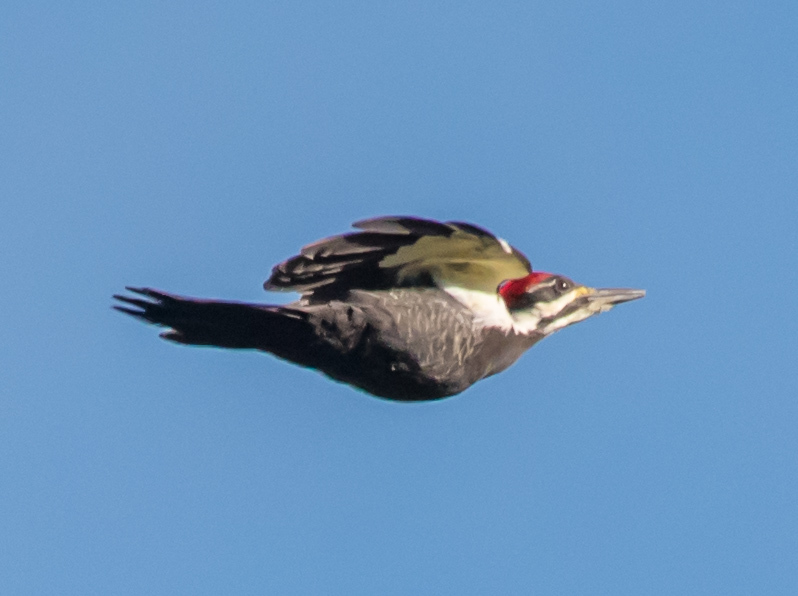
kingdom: Animalia
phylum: Chordata
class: Aves
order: Piciformes
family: Picidae
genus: Dryocopus
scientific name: Dryocopus pileatus
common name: Pileated woodpecker
